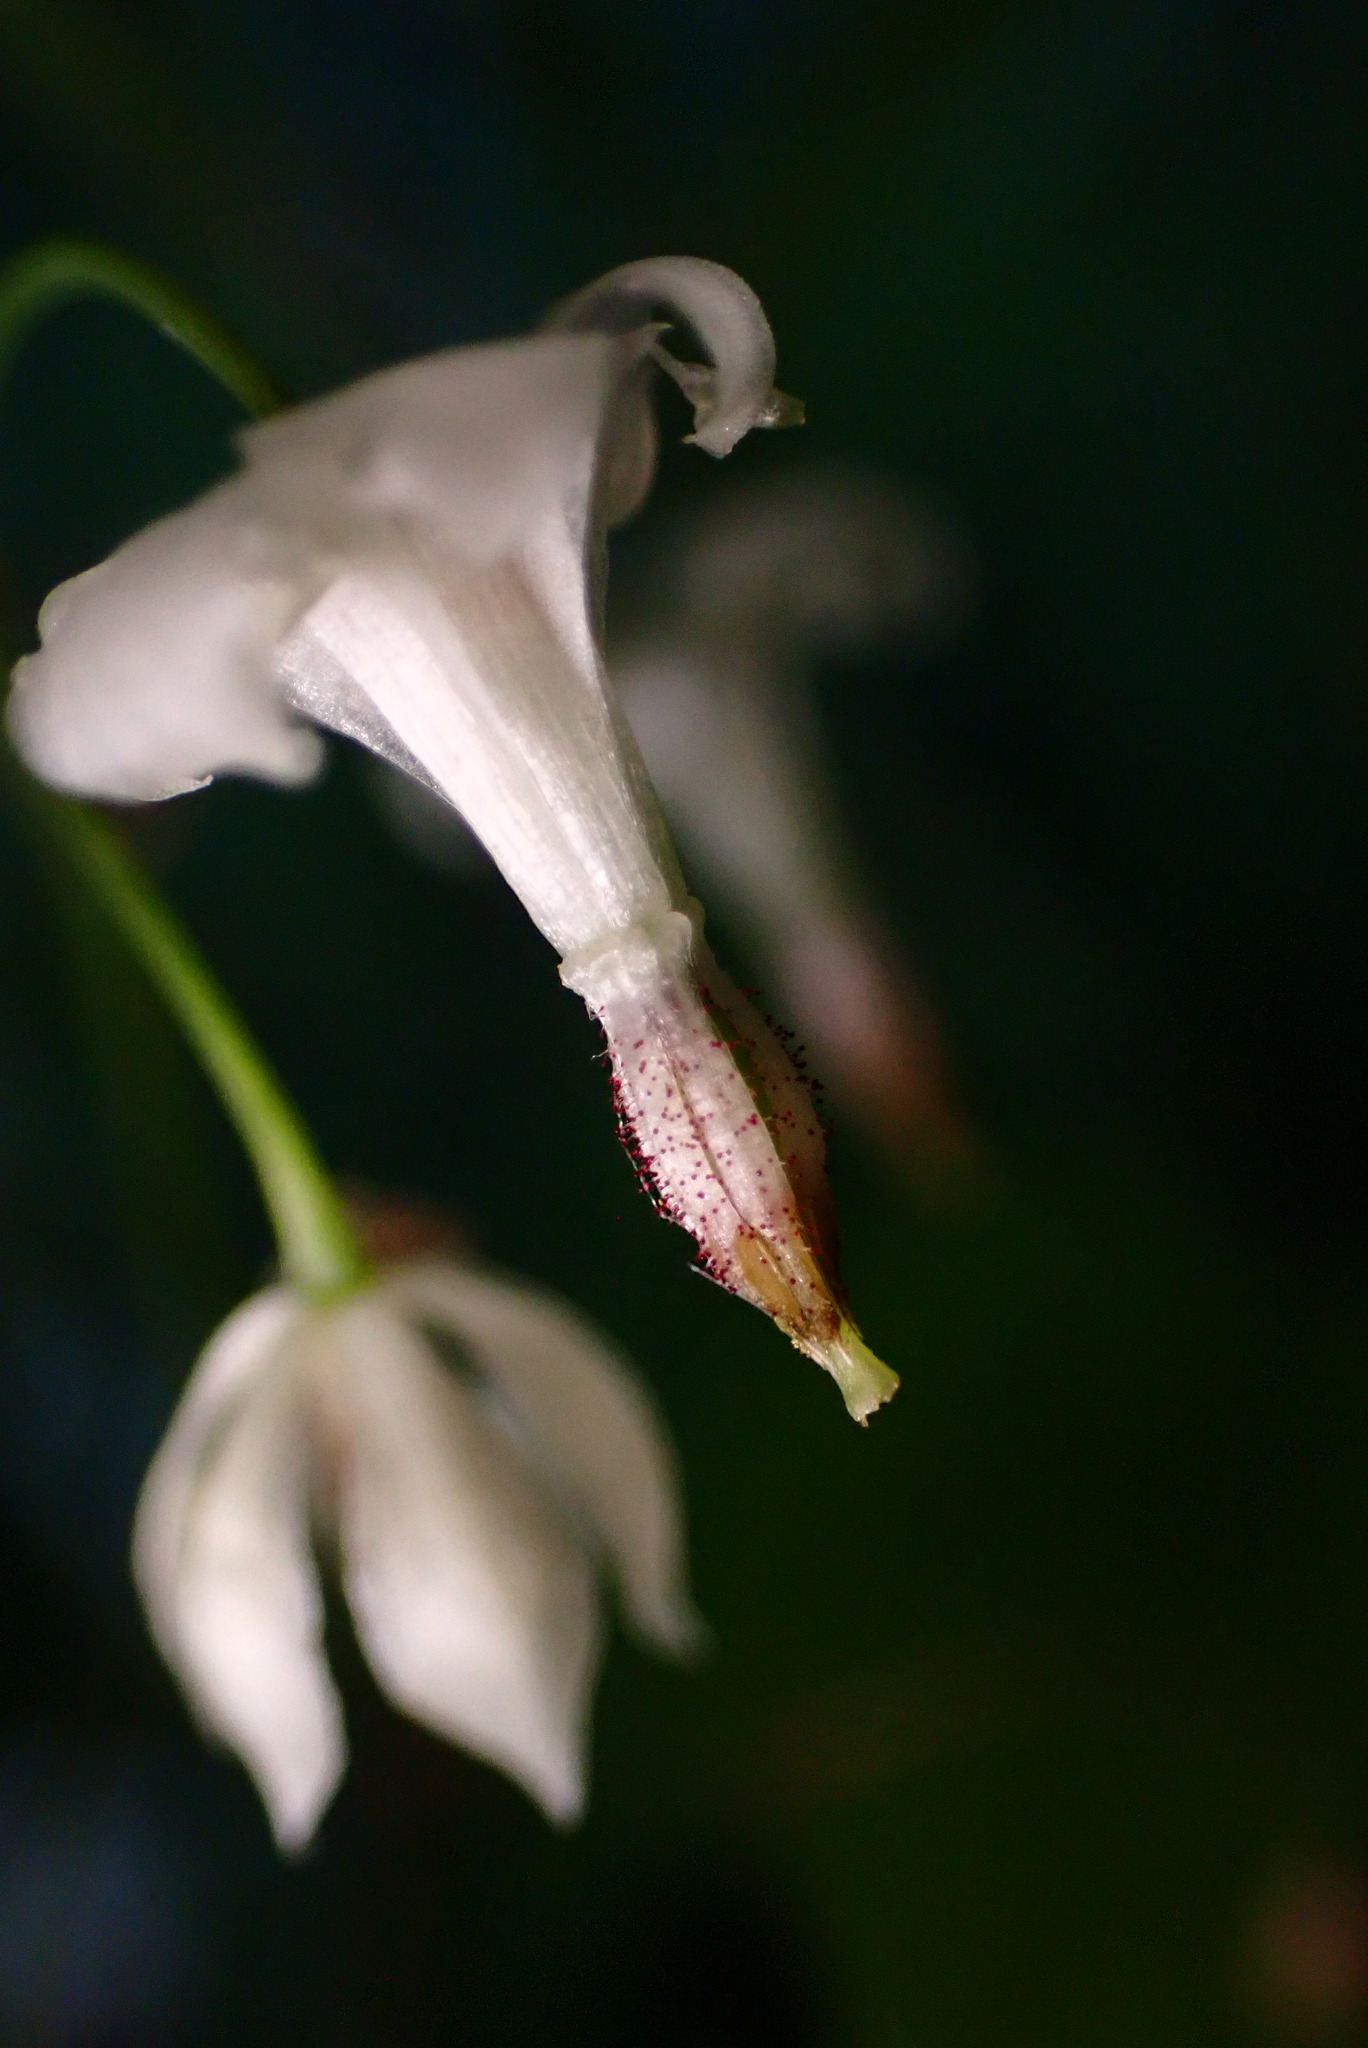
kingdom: Plantae
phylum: Tracheophyta
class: Magnoliopsida
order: Ranunculales
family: Berberidaceae
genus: Vancouveria
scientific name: Vancouveria hexandra
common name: Northern inside-out-flower
